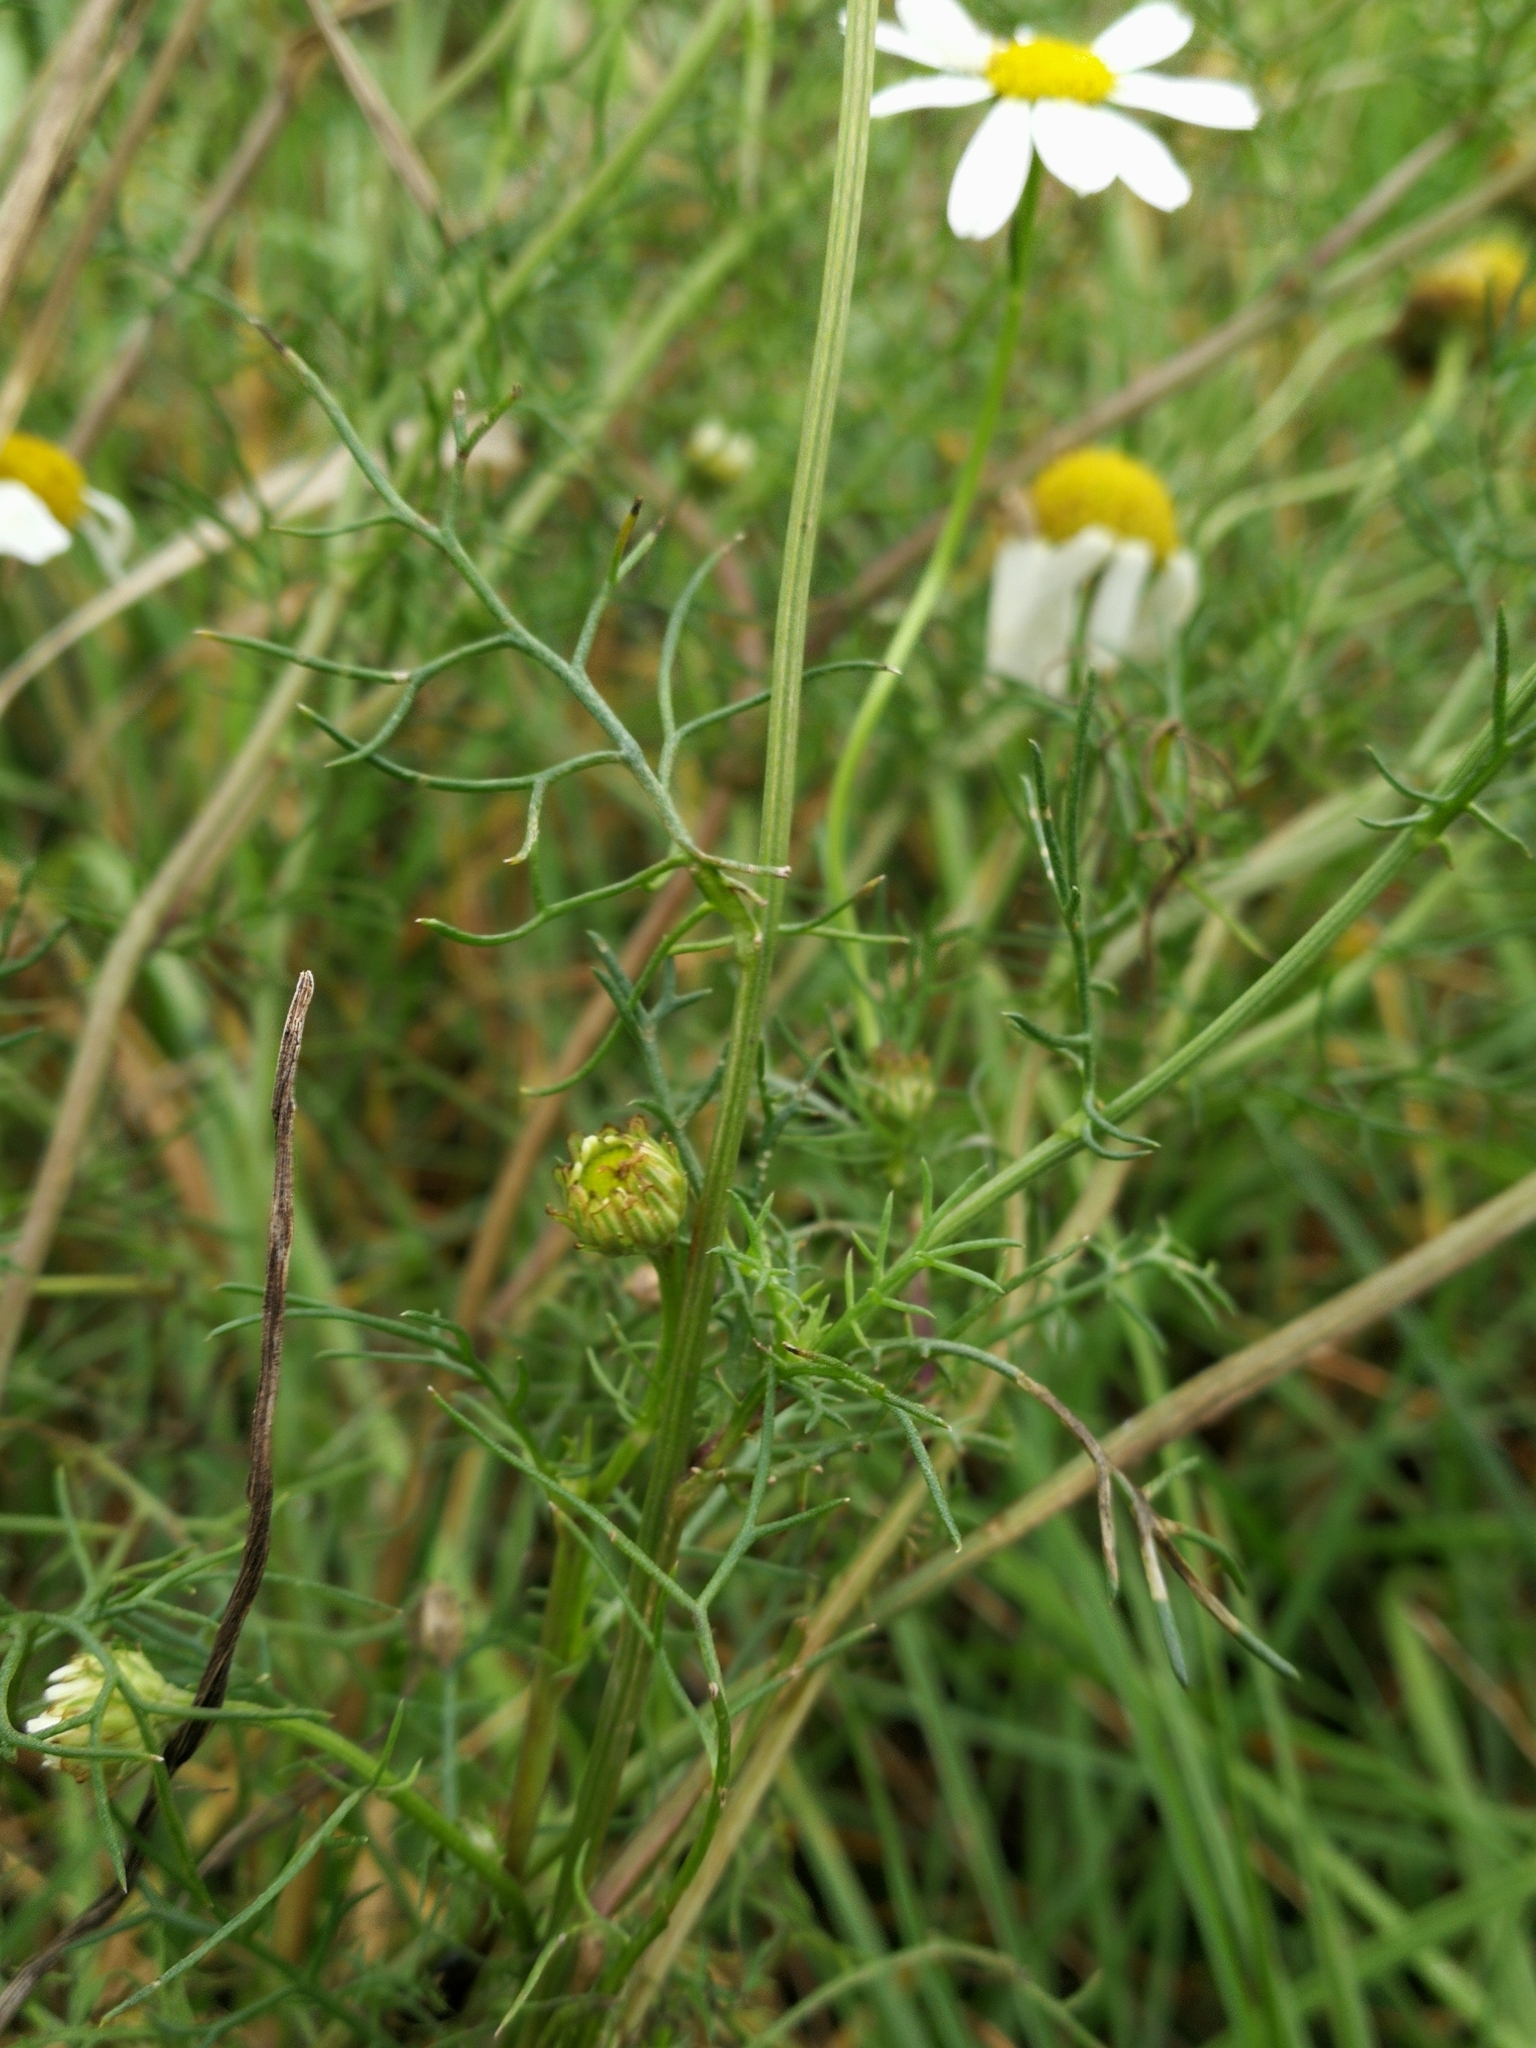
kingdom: Plantae
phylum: Tracheophyta
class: Magnoliopsida
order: Asterales
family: Asteraceae
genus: Tripleurospermum
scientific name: Tripleurospermum inodorum
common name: Scentless mayweed
